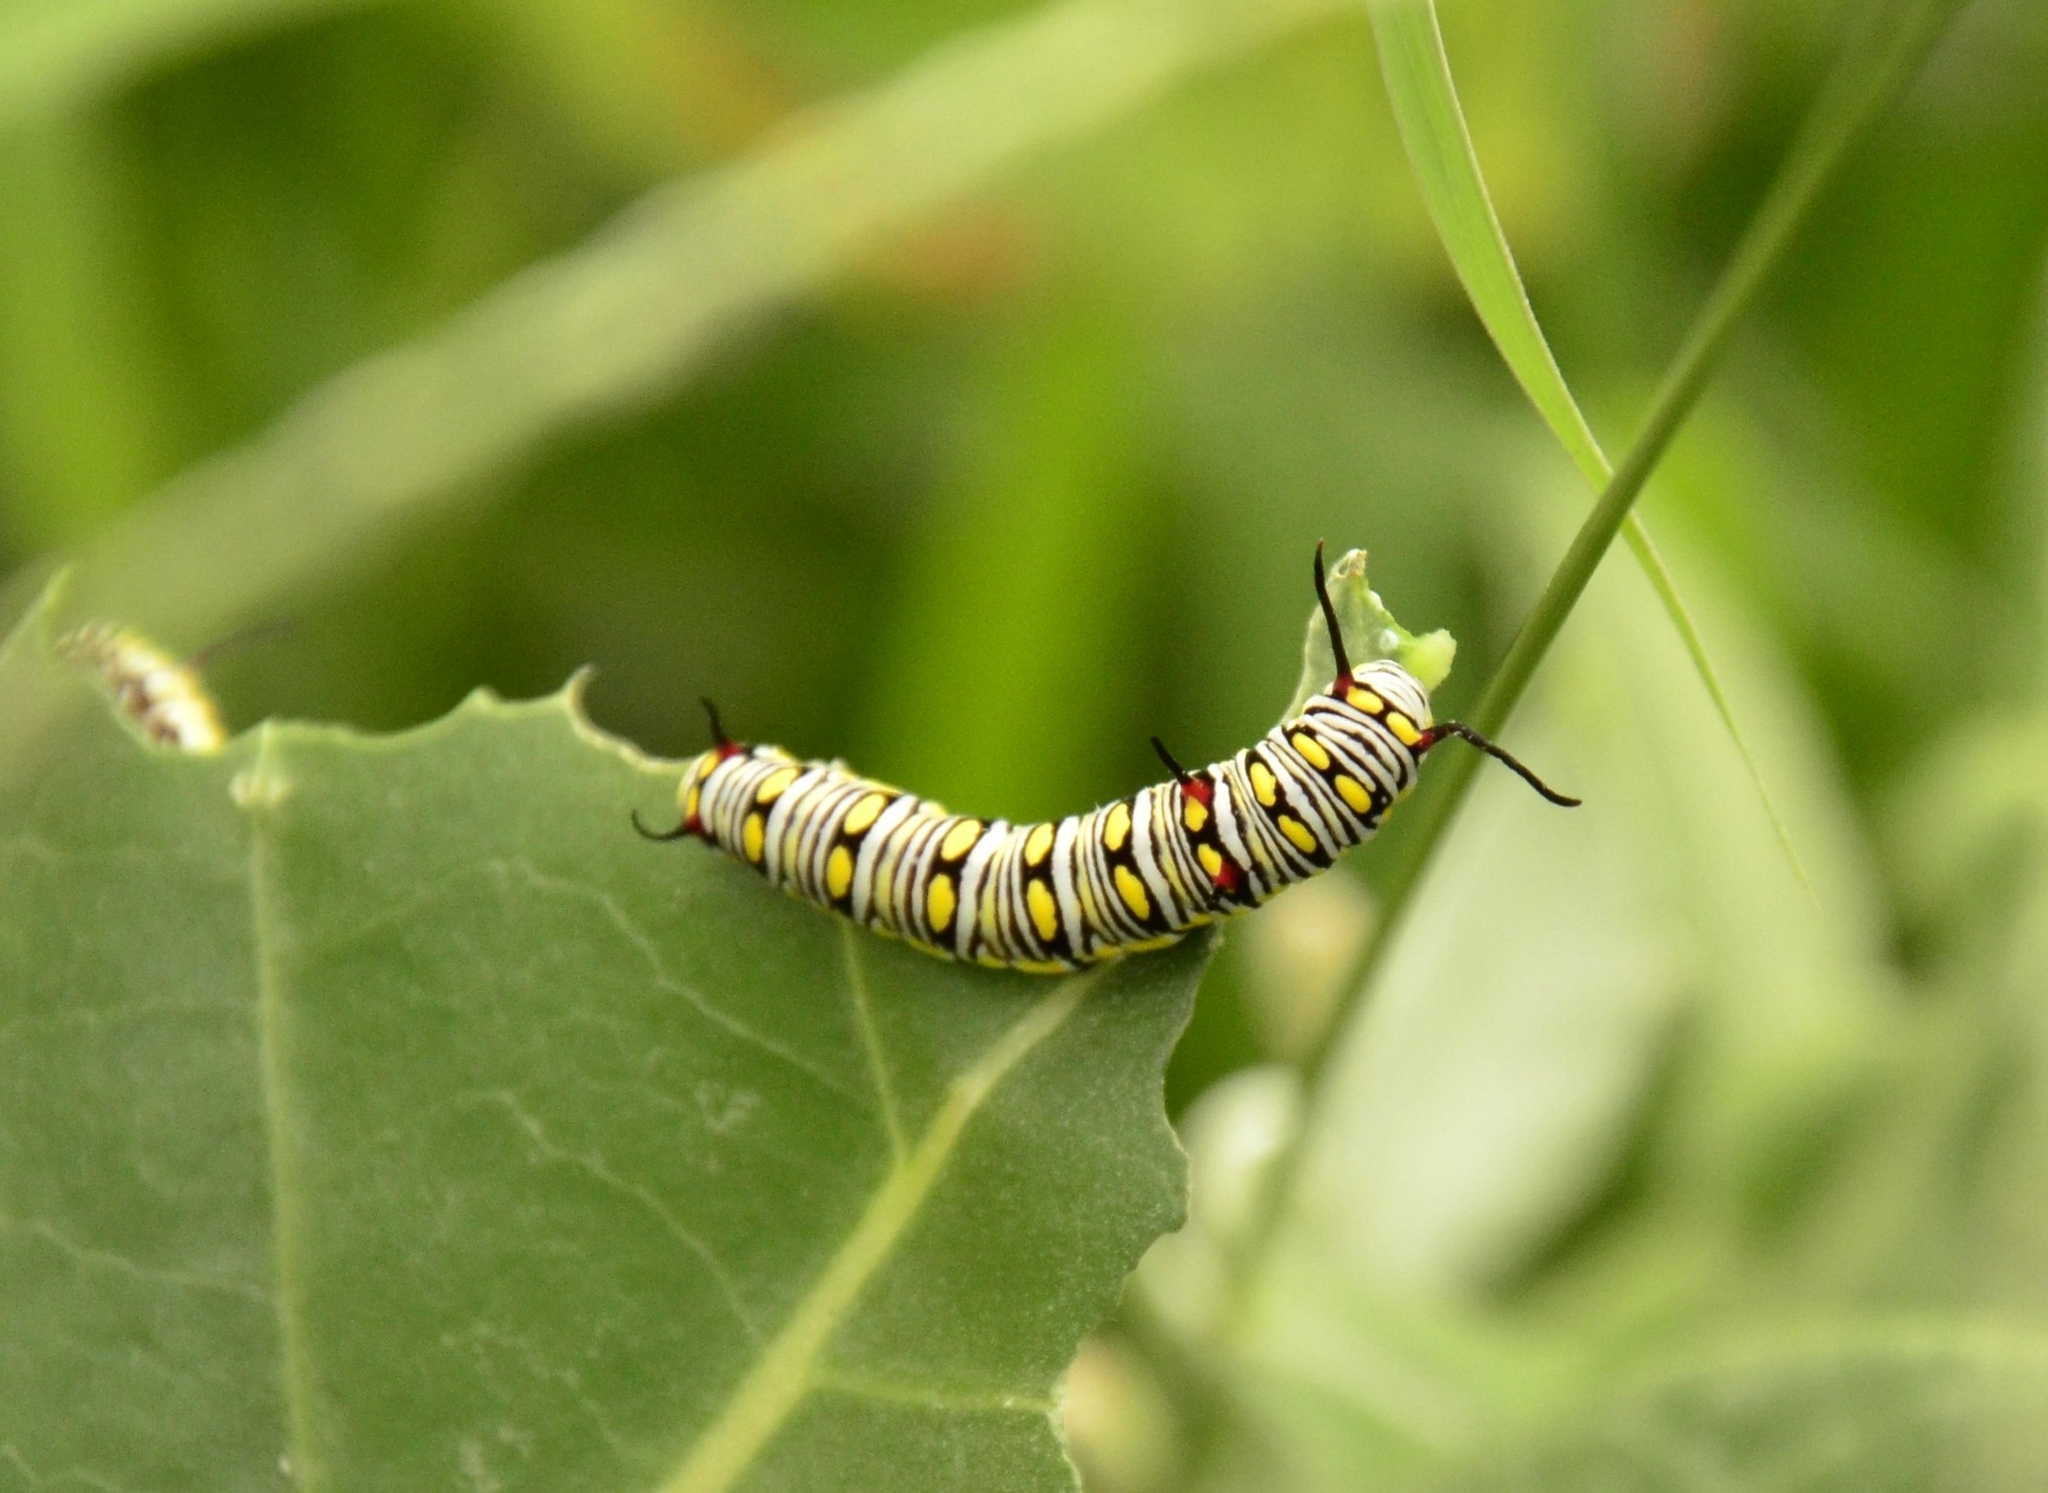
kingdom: Animalia
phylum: Arthropoda
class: Insecta
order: Lepidoptera
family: Nymphalidae
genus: Danaus
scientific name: Danaus chrysippus
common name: Plain tiger
